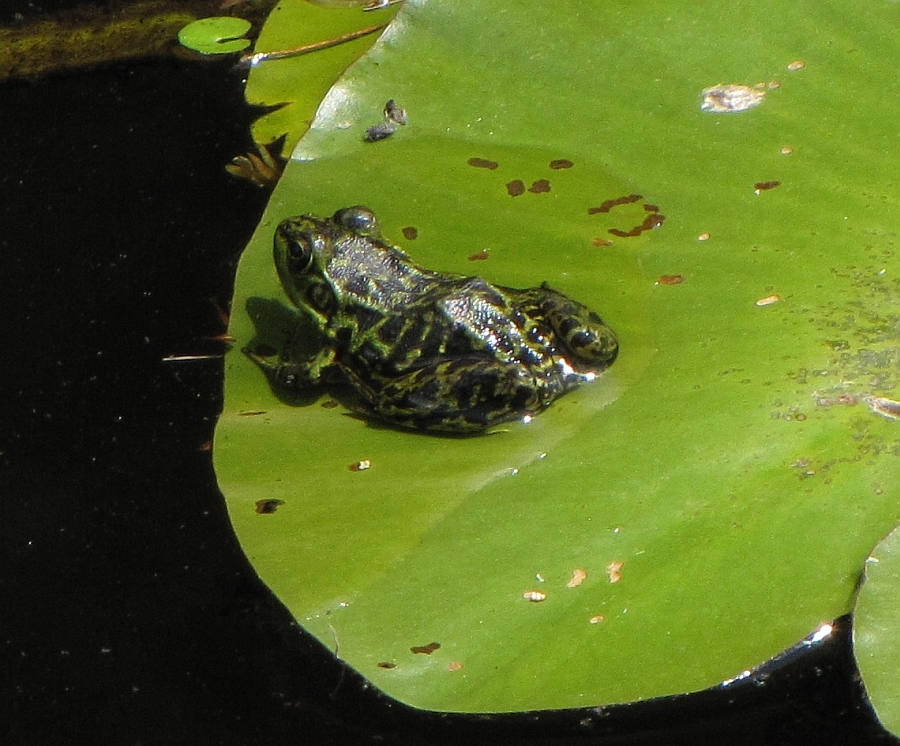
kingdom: Animalia
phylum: Chordata
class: Amphibia
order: Anura
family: Ranidae
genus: Lithobates
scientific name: Lithobates septentrionalis
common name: Mink frog
